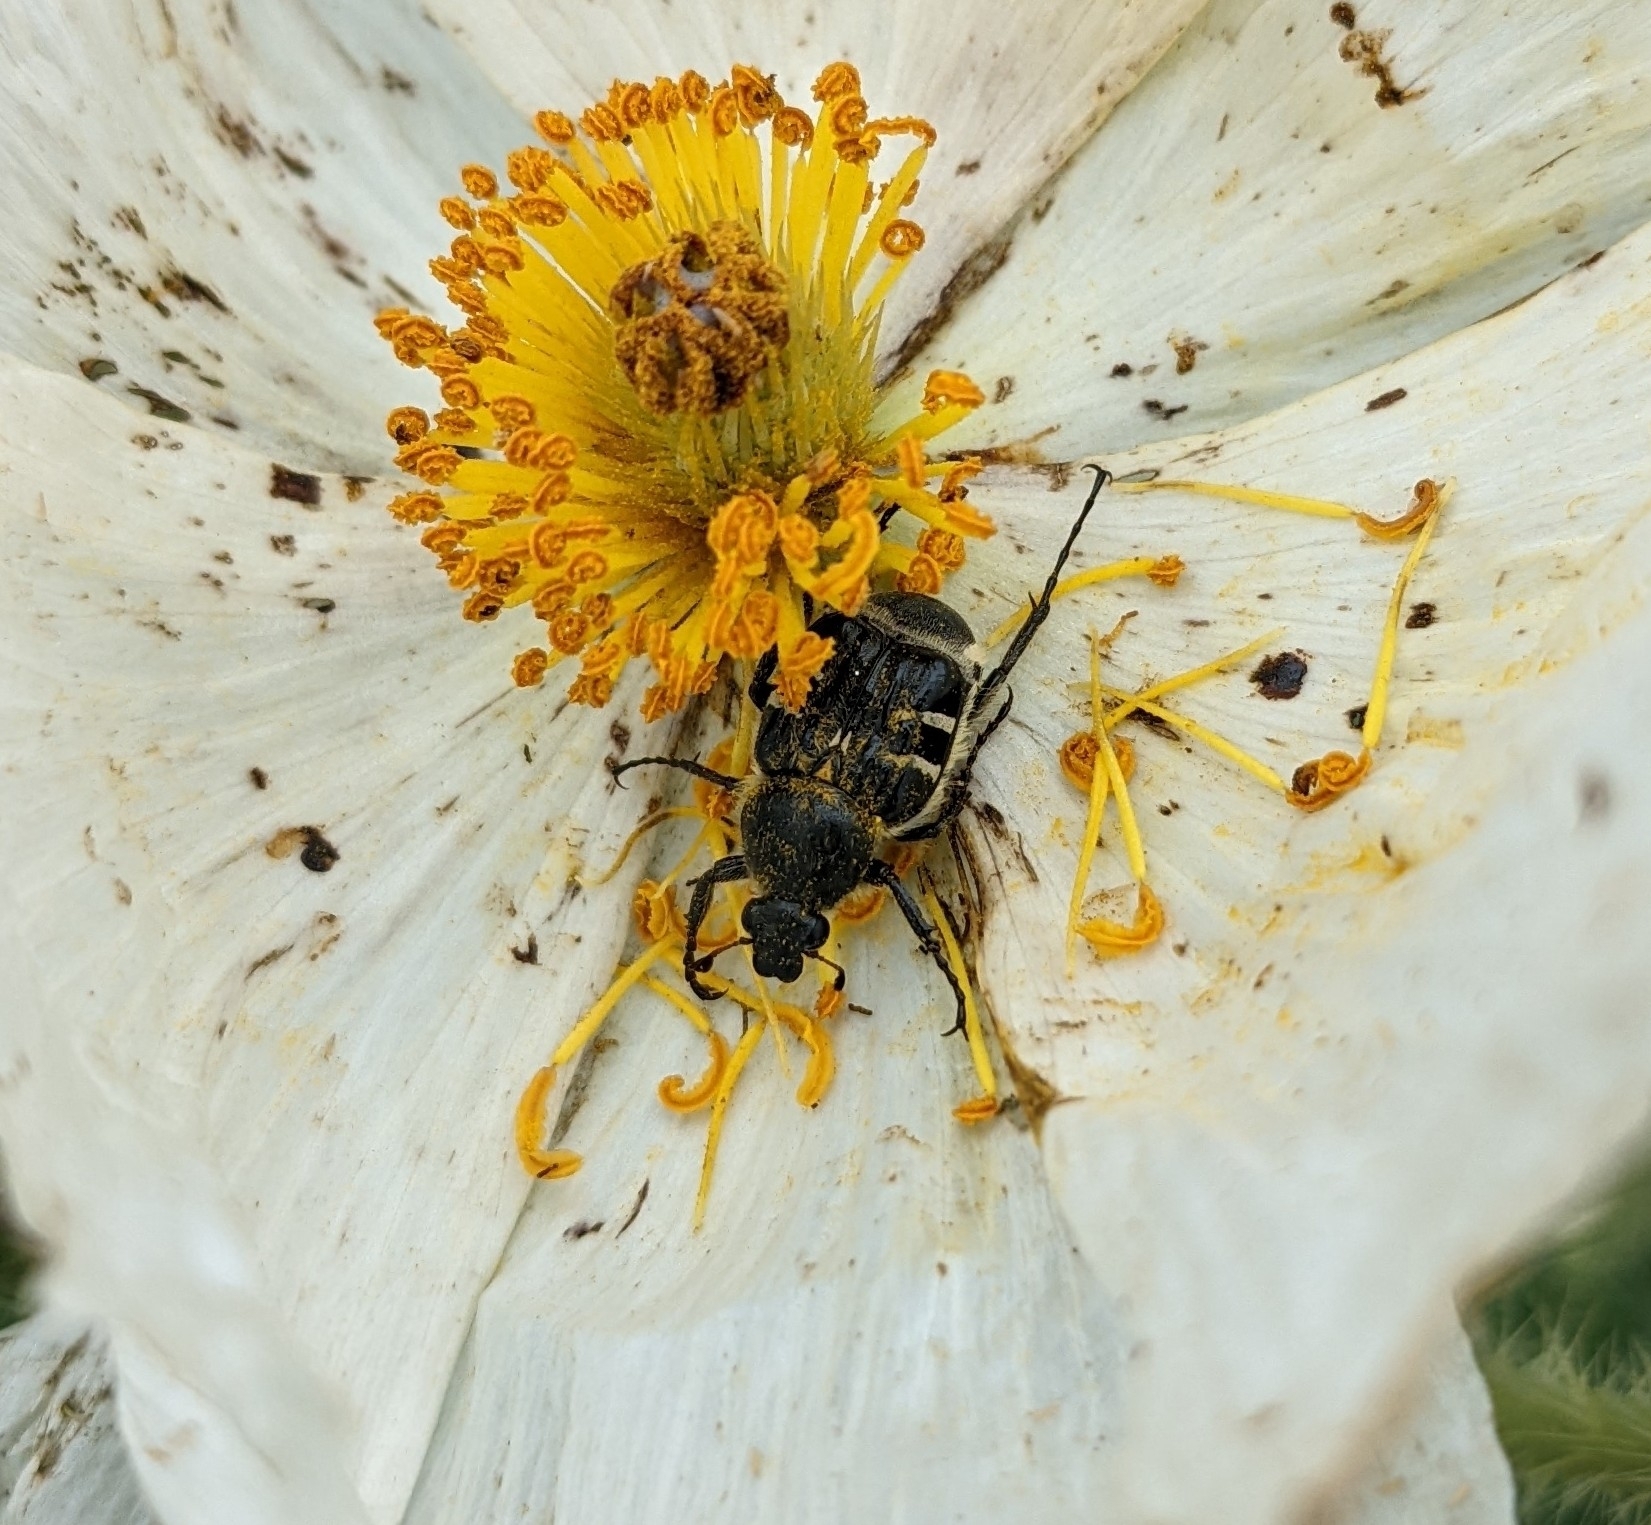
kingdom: Animalia
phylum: Arthropoda
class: Insecta
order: Coleoptera
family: Scarabaeidae
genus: Trichiotinus
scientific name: Trichiotinus texanus
